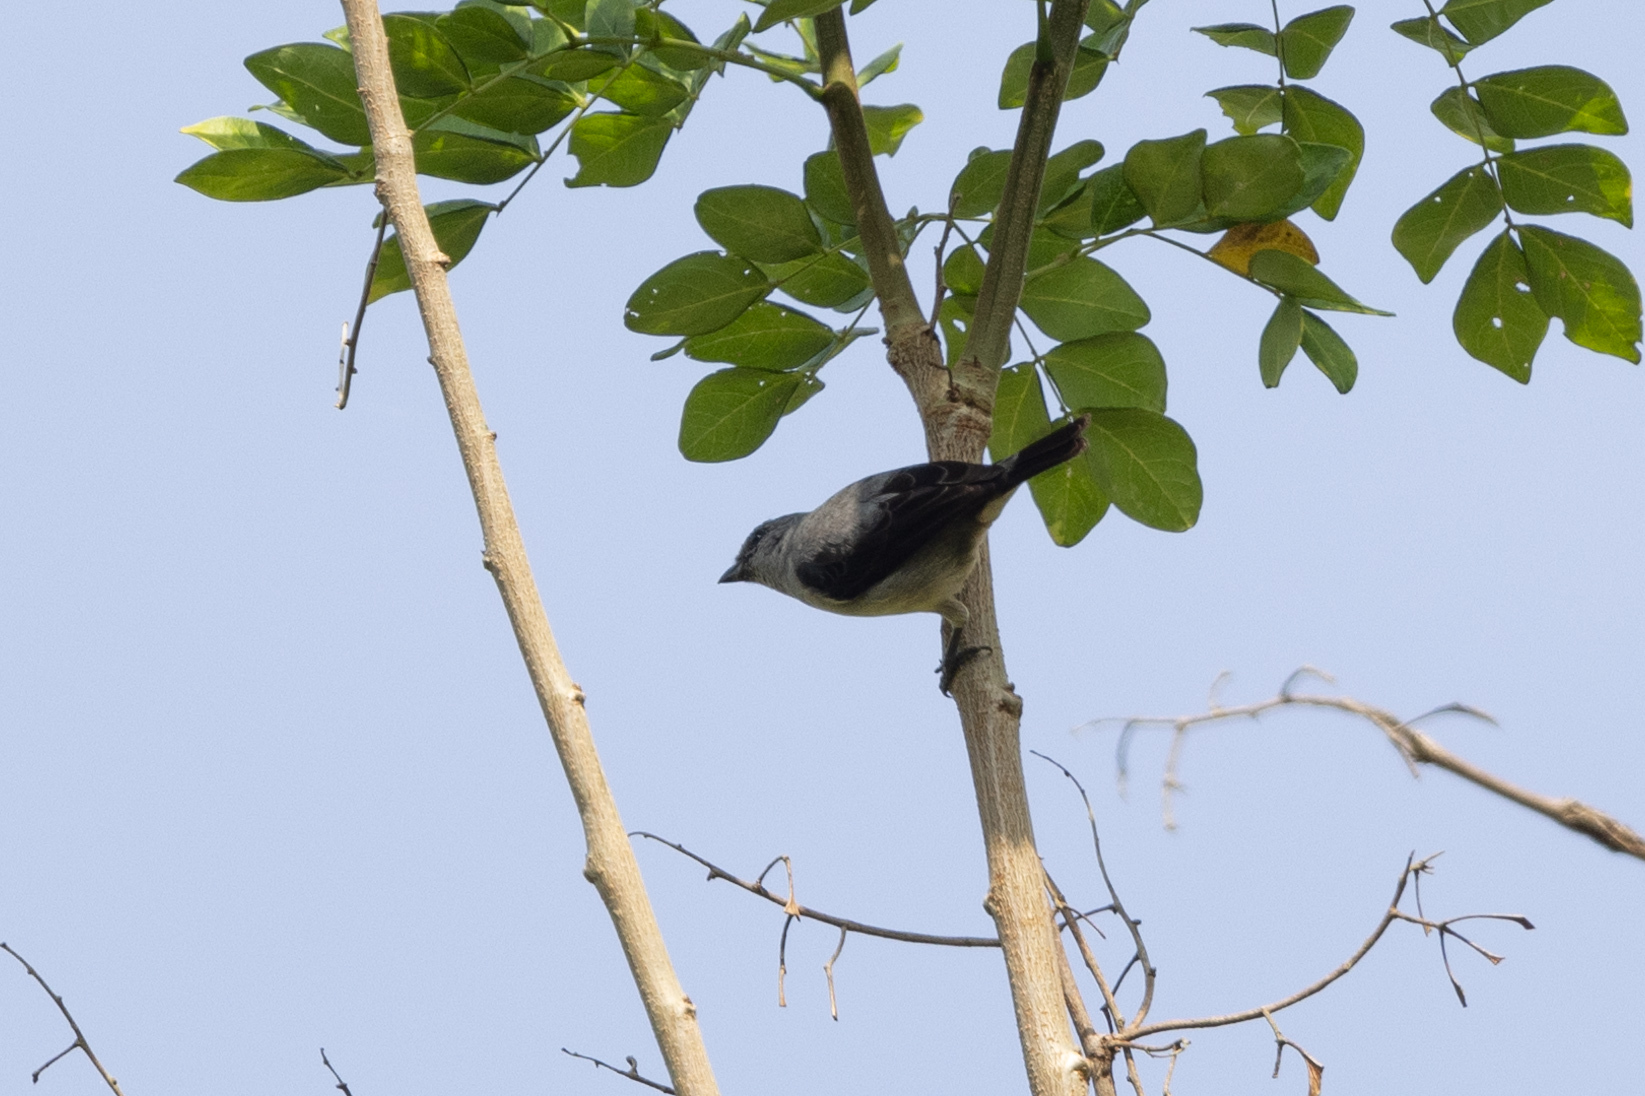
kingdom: Animalia
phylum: Chordata
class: Aves
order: Passeriformes
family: Thraupidae
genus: Tangara
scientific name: Tangara inornata
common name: Plain-colored tanager
